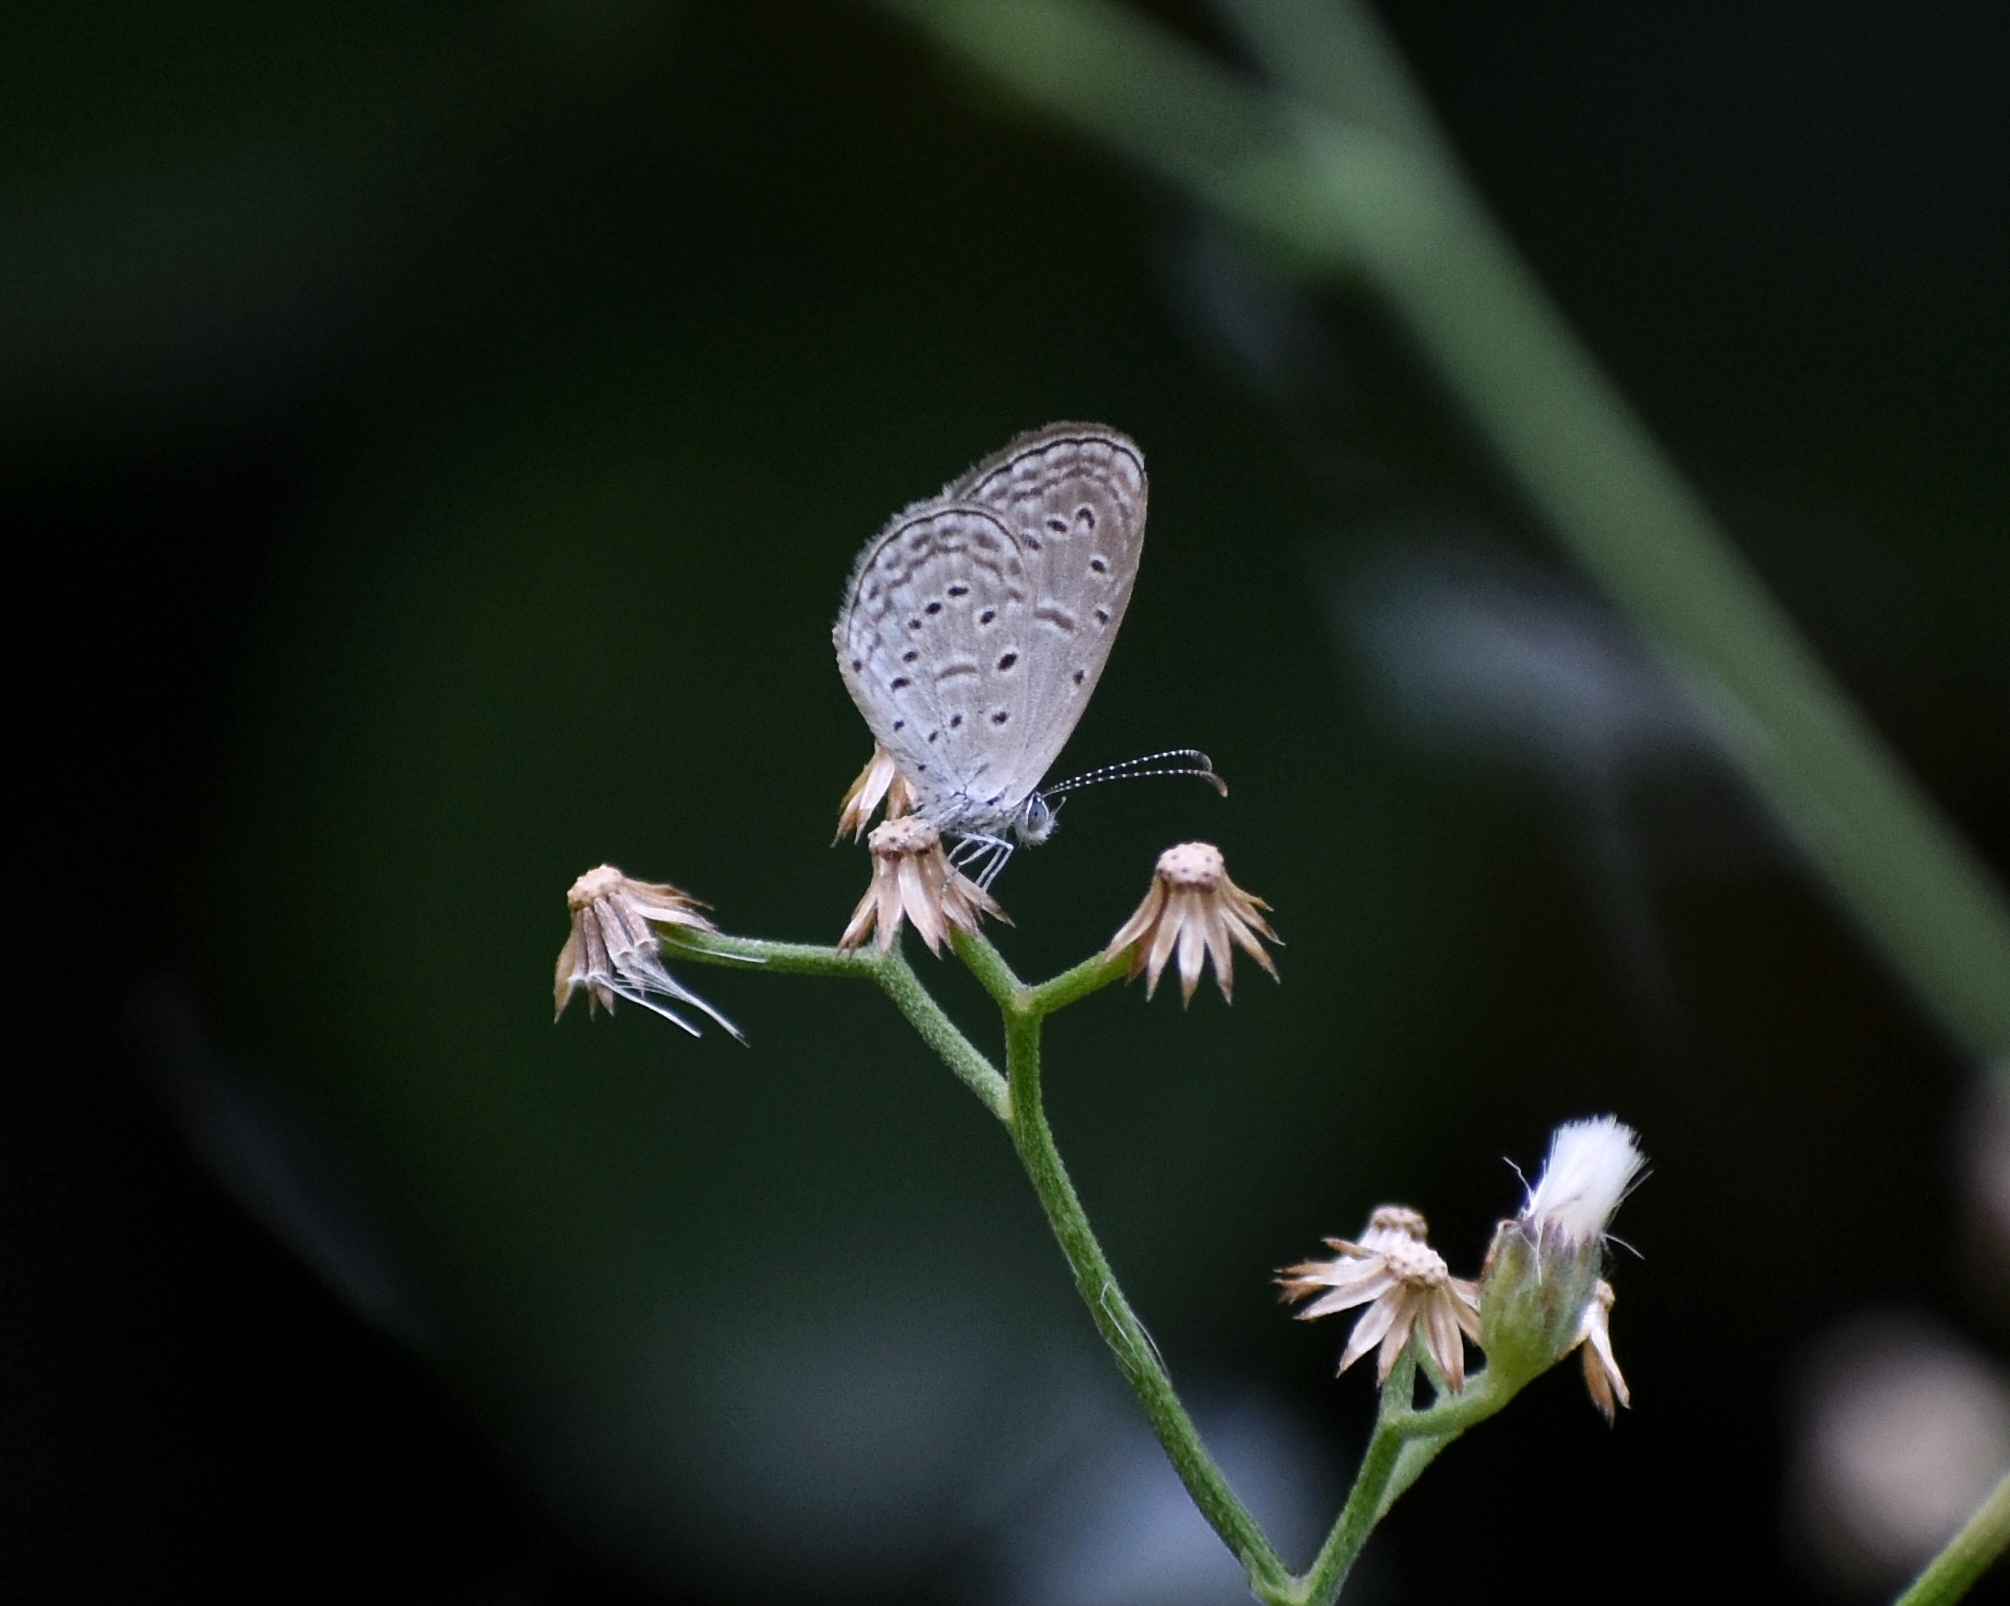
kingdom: Animalia
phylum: Arthropoda
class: Insecta
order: Lepidoptera
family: Lycaenidae
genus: Zizula
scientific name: Zizula hylax
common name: Gaika blue
